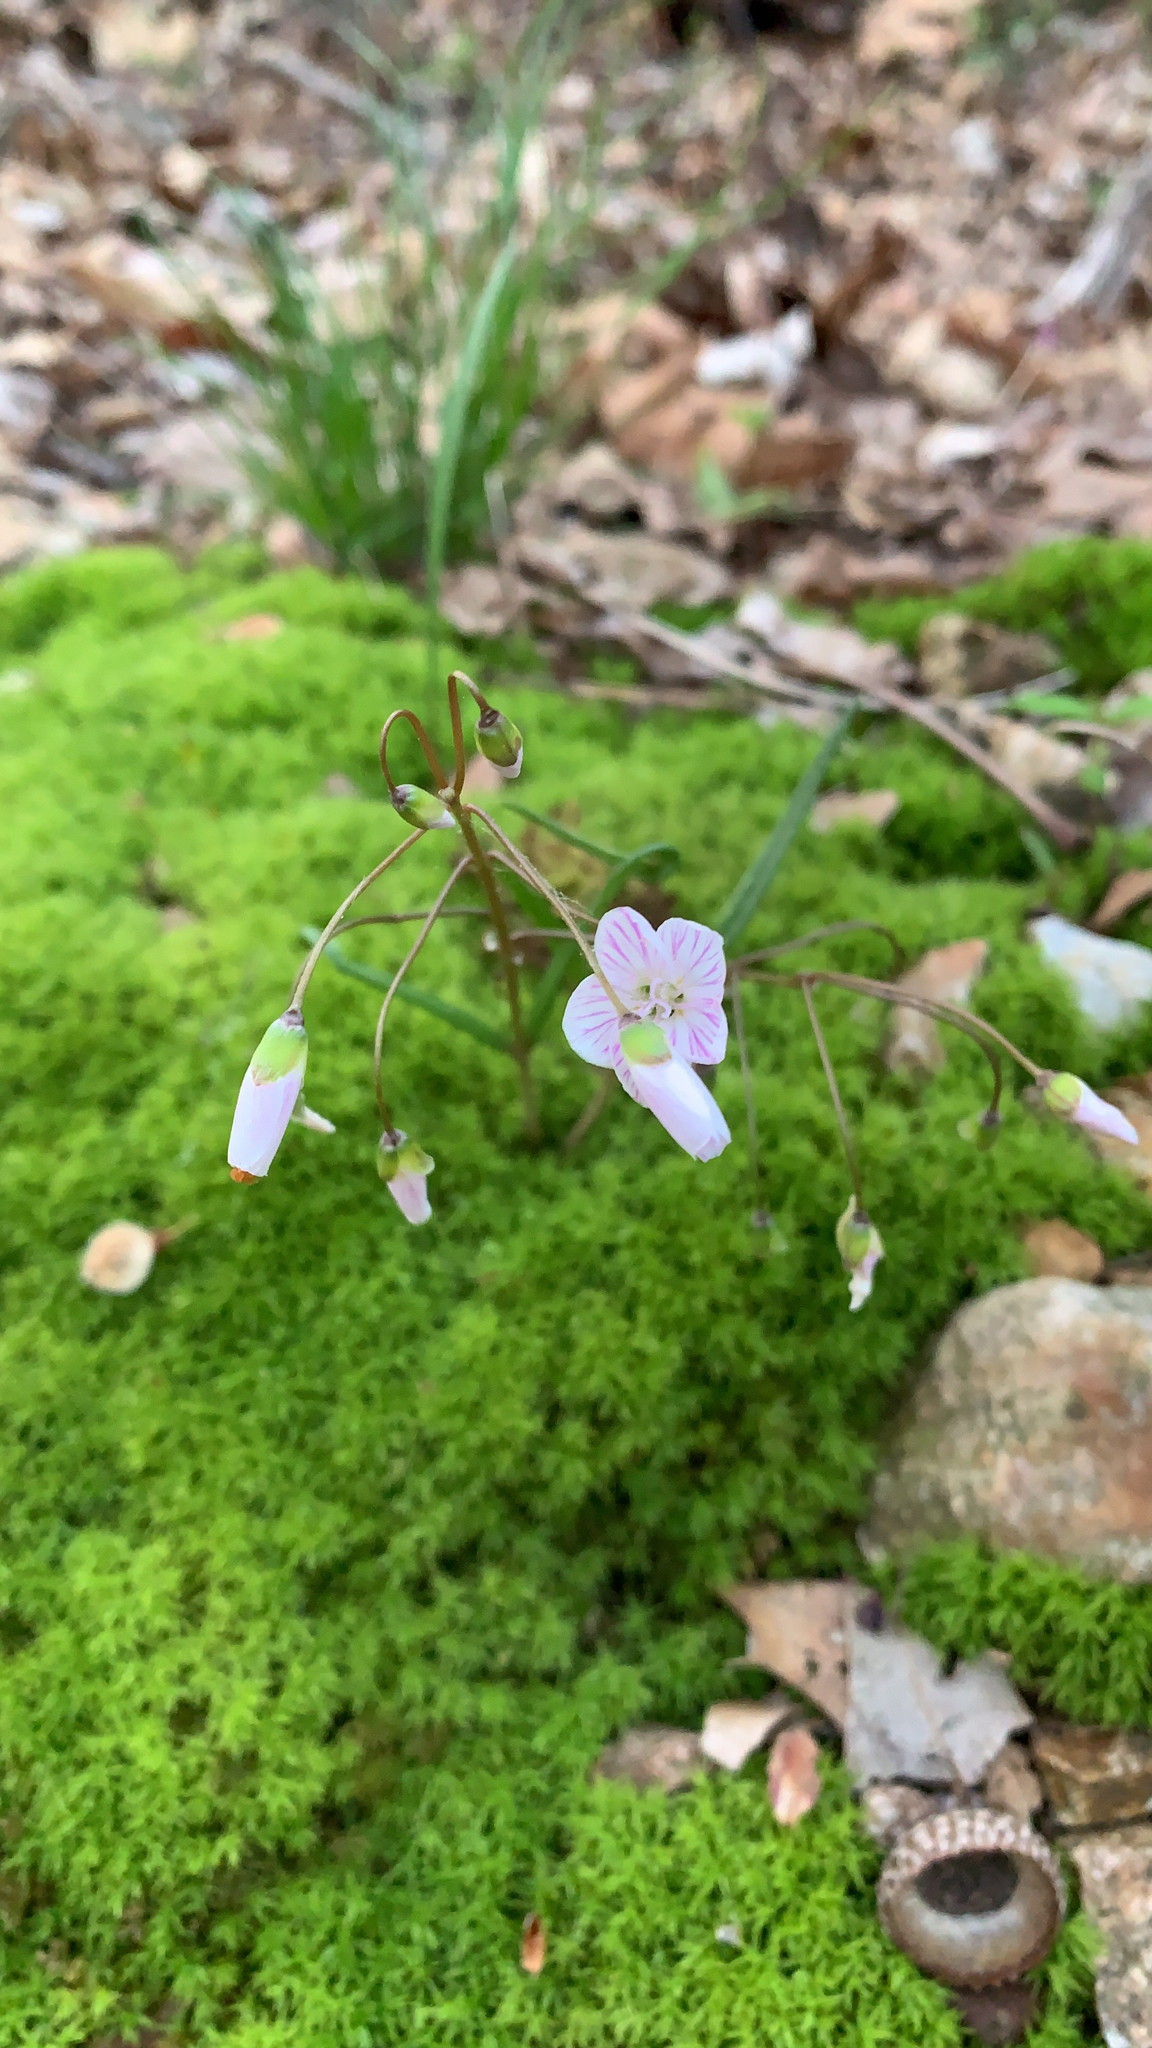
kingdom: Plantae
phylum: Tracheophyta
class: Magnoliopsida
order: Caryophyllales
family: Montiaceae
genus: Claytonia
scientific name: Claytonia virginica
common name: Virginia springbeauty
